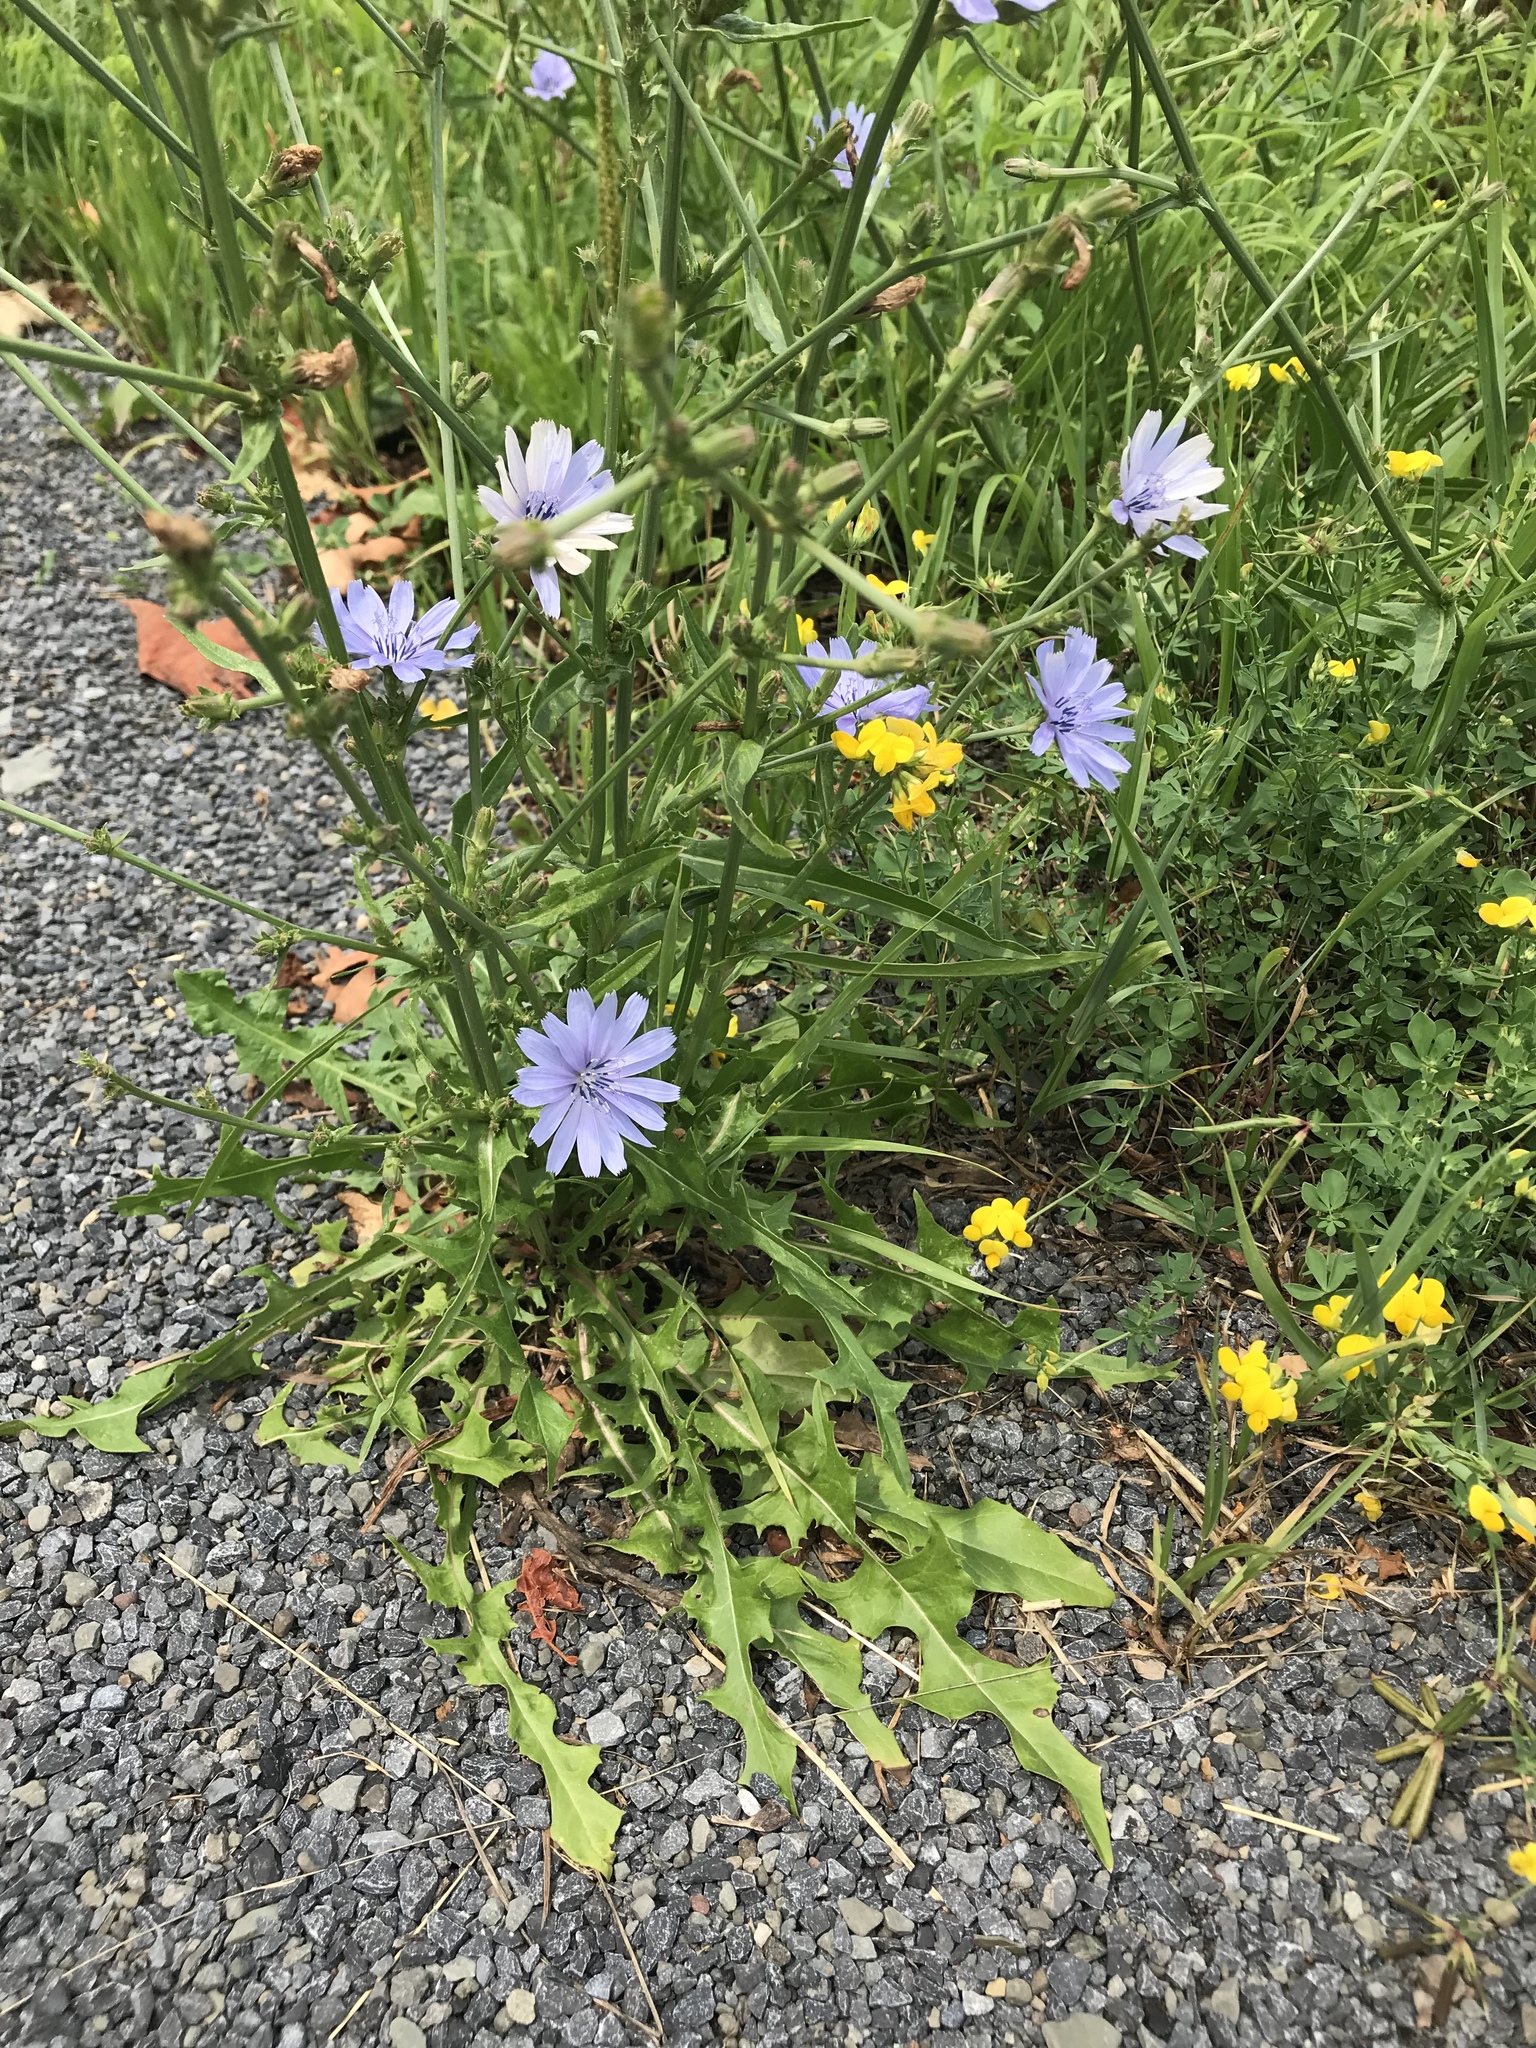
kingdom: Plantae
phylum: Tracheophyta
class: Magnoliopsida
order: Asterales
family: Asteraceae
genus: Cichorium
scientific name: Cichorium intybus
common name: Chicory
